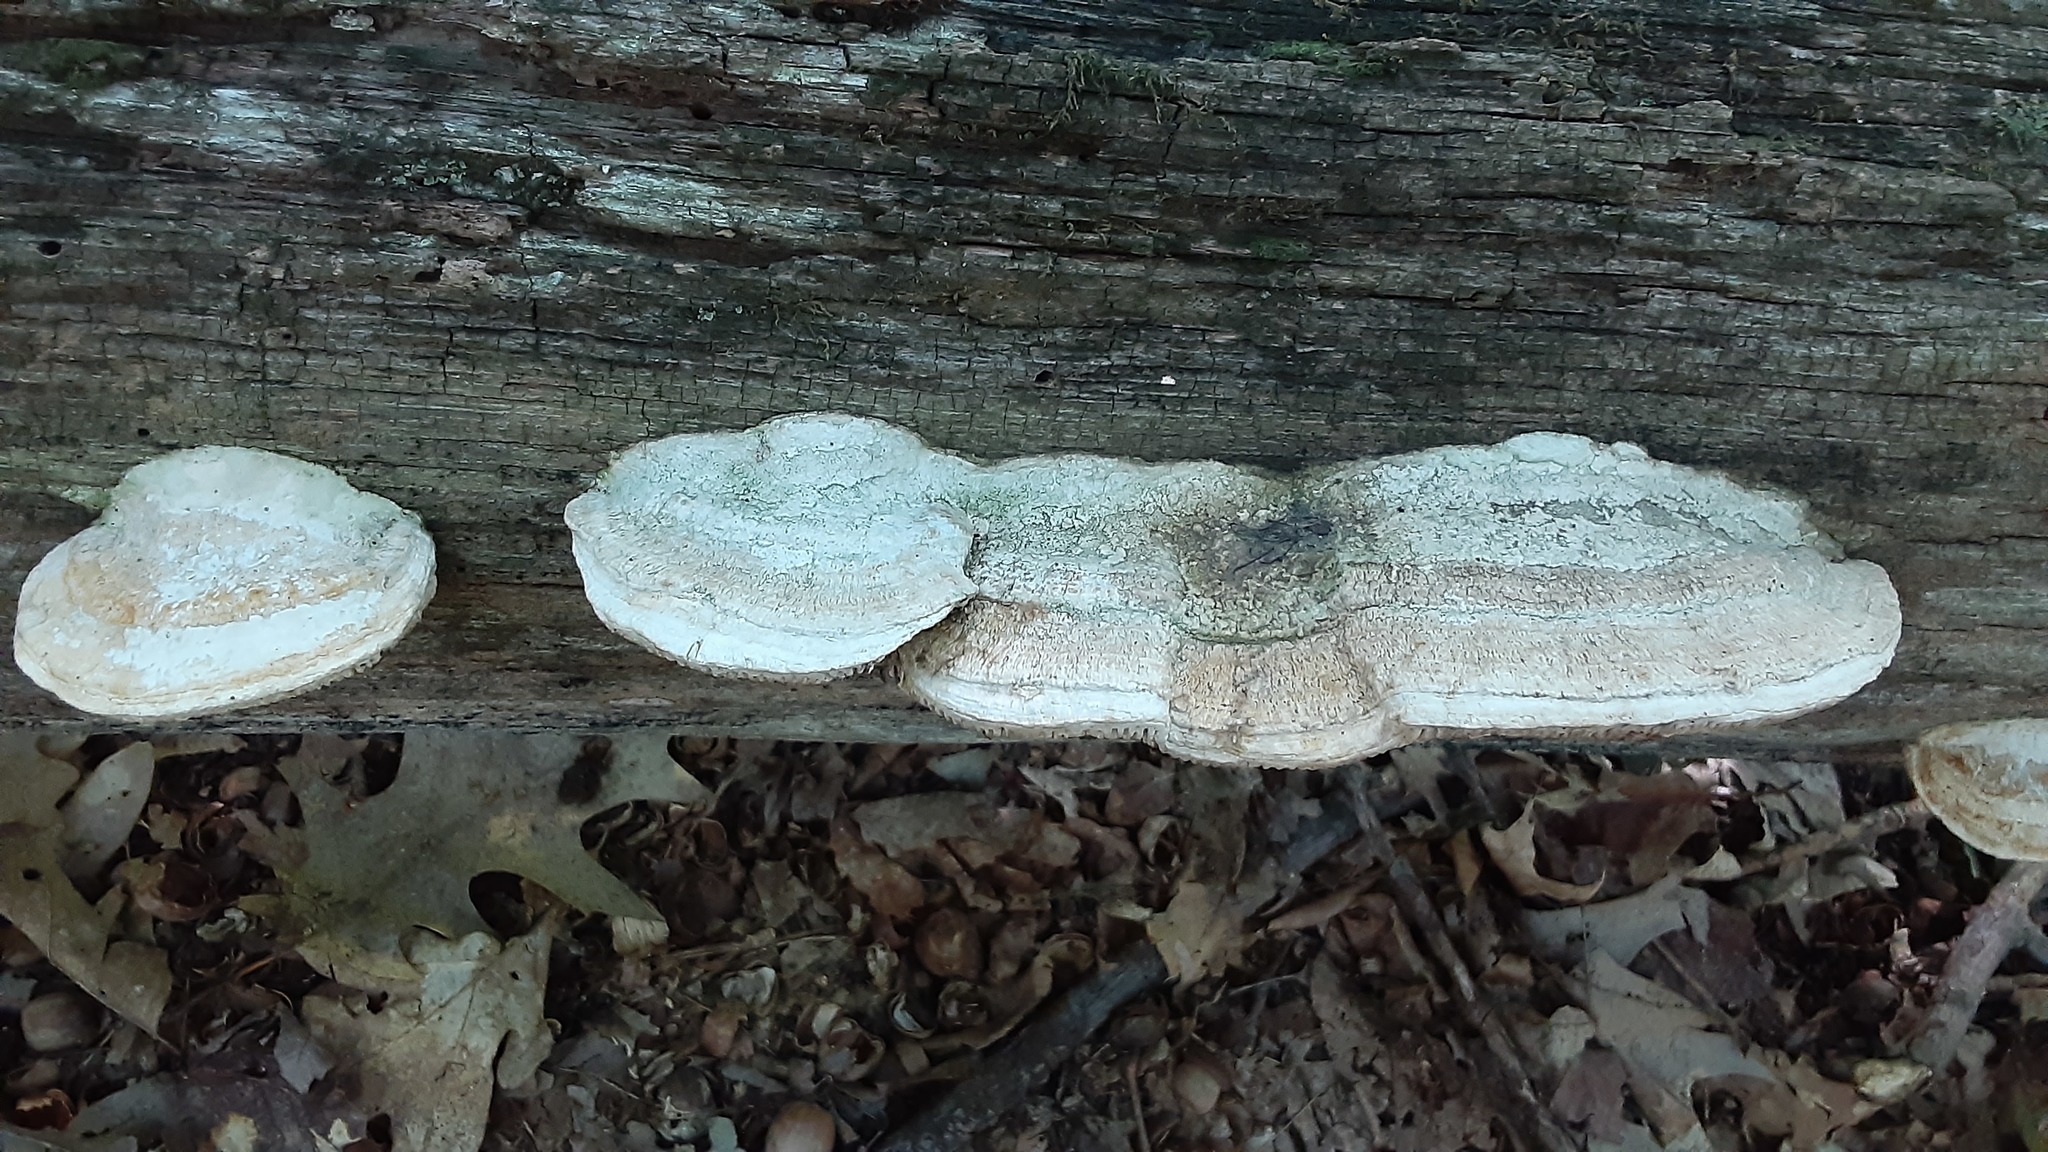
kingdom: Fungi
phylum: Basidiomycota
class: Agaricomycetes
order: Polyporales
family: Fomitopsidaceae
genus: Fomitopsis
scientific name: Fomitopsis
